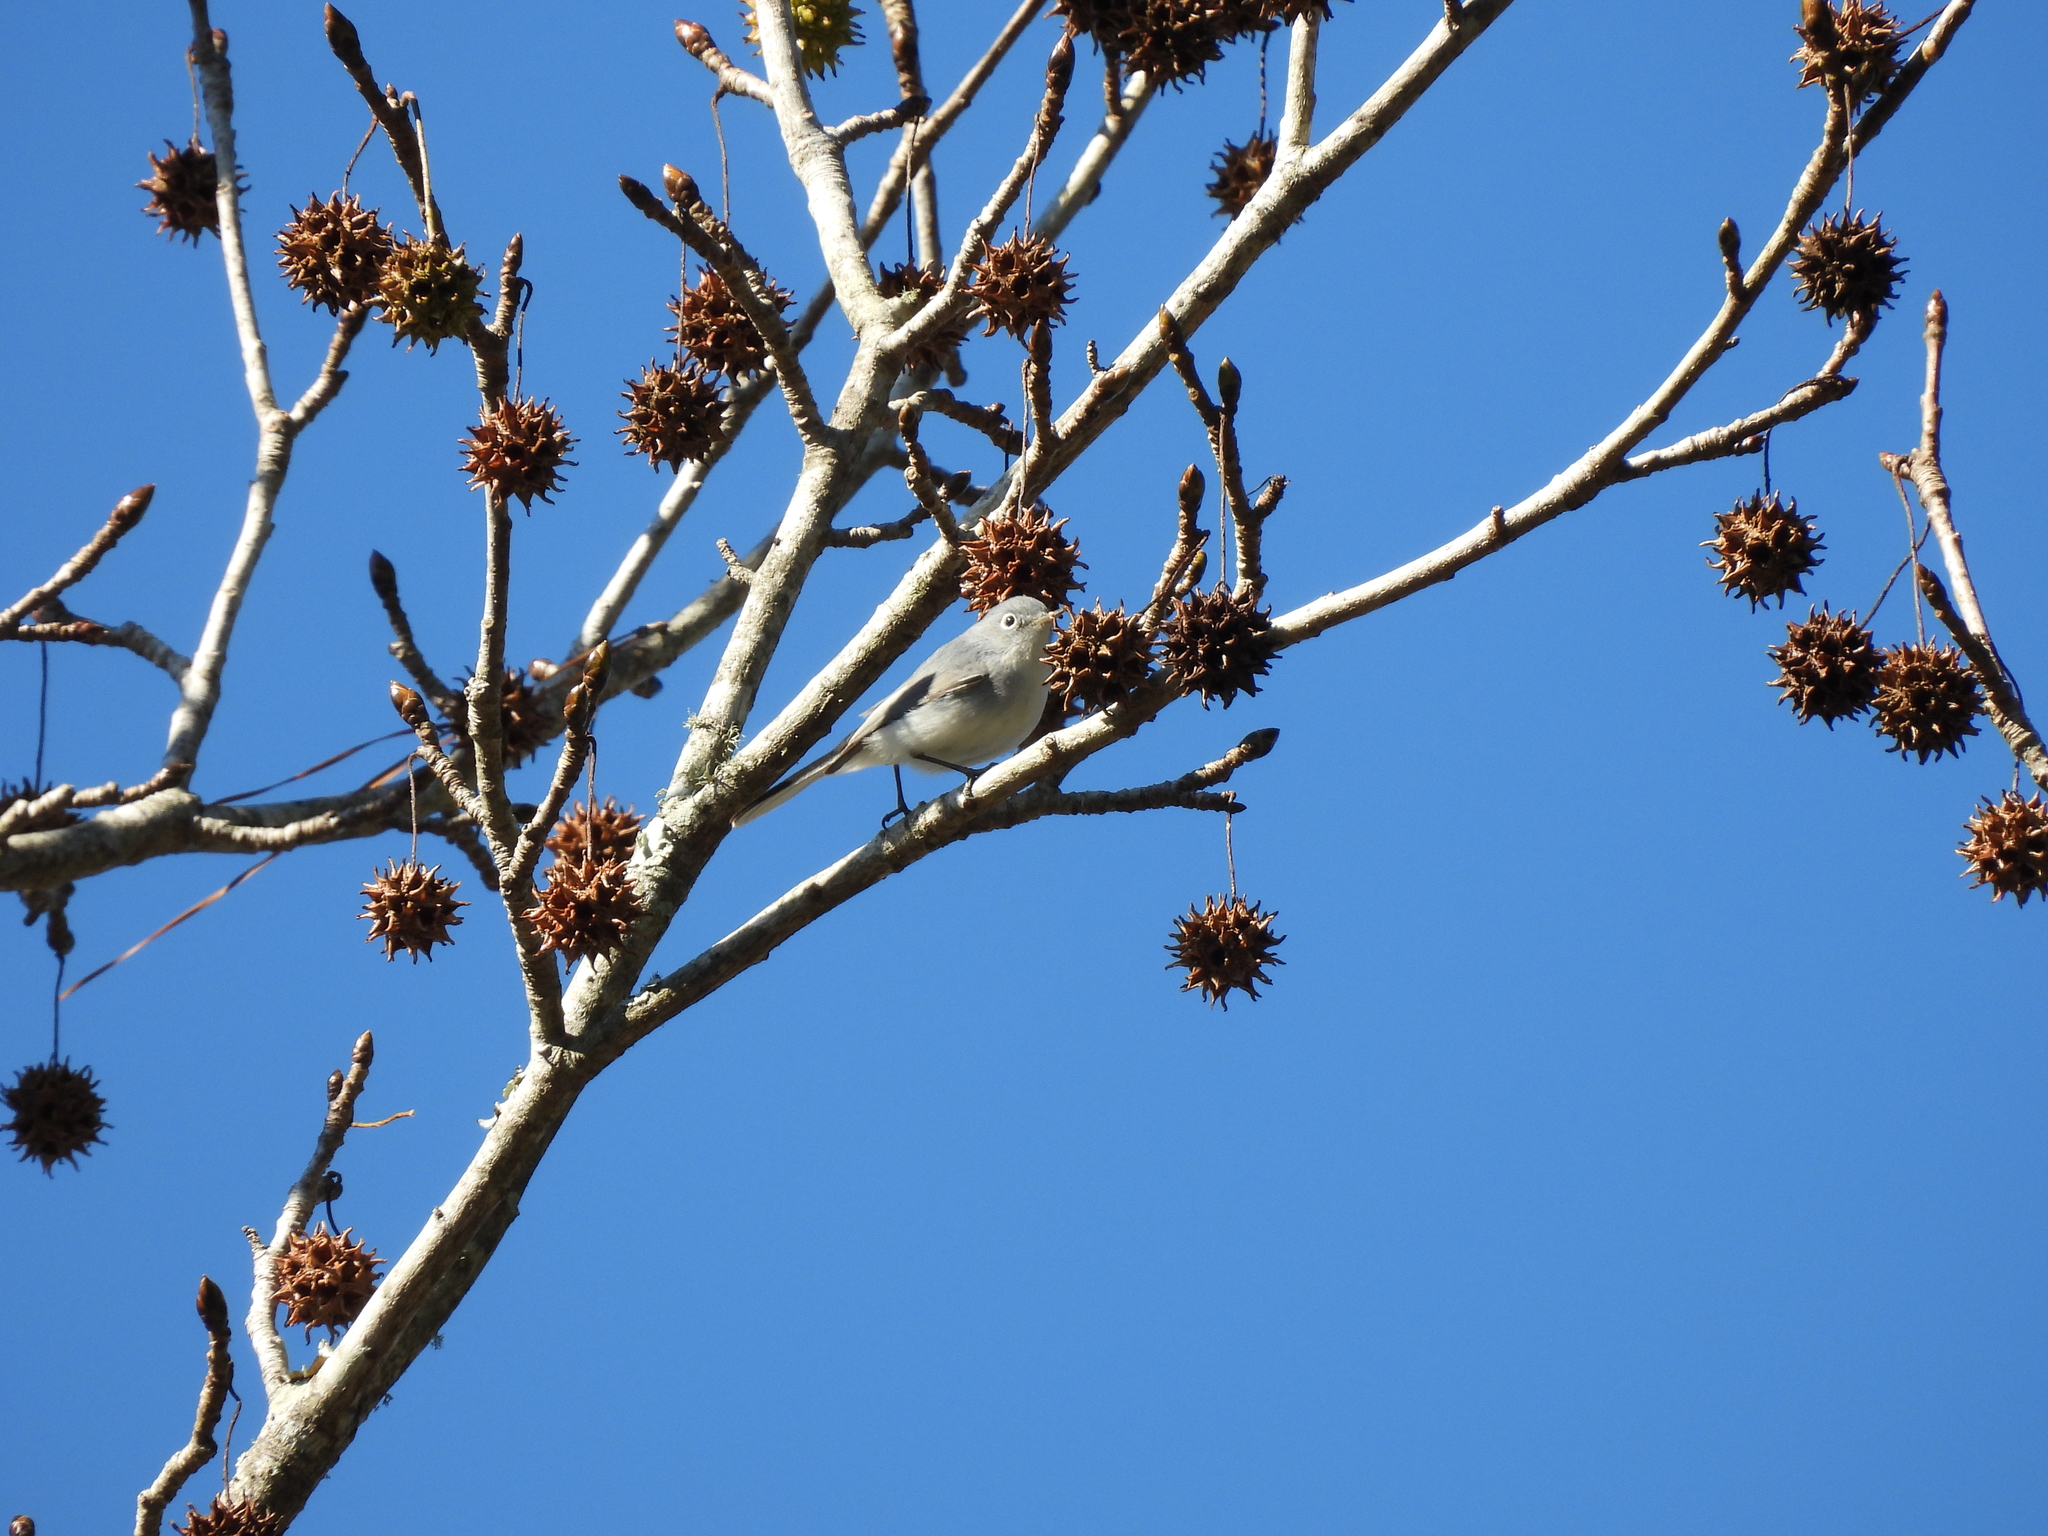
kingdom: Animalia
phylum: Chordata
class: Aves
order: Passeriformes
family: Polioptilidae
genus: Polioptila
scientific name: Polioptila caerulea
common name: Blue-gray gnatcatcher
